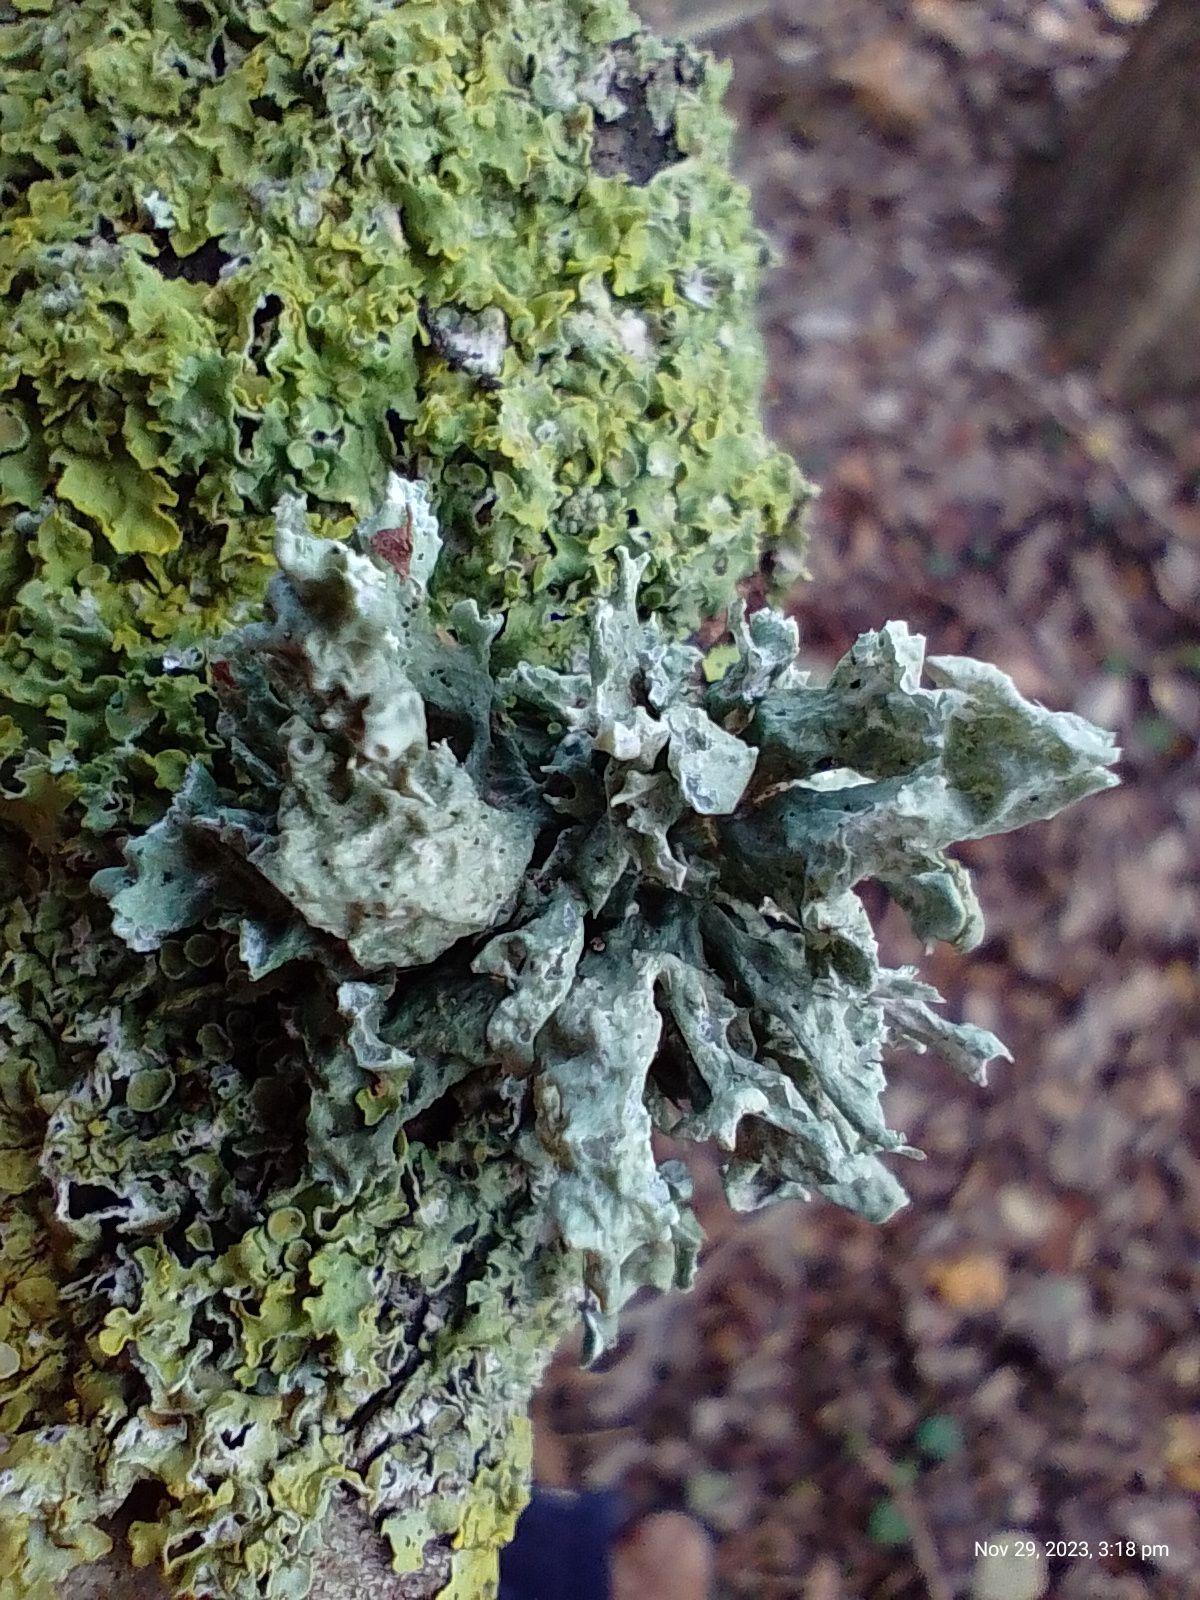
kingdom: Fungi
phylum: Ascomycota
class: Lecanoromycetes
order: Lecanorales
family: Ramalinaceae
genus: Ramalina
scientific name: Ramalina fastigiata
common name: Dotted ribbon lichen
